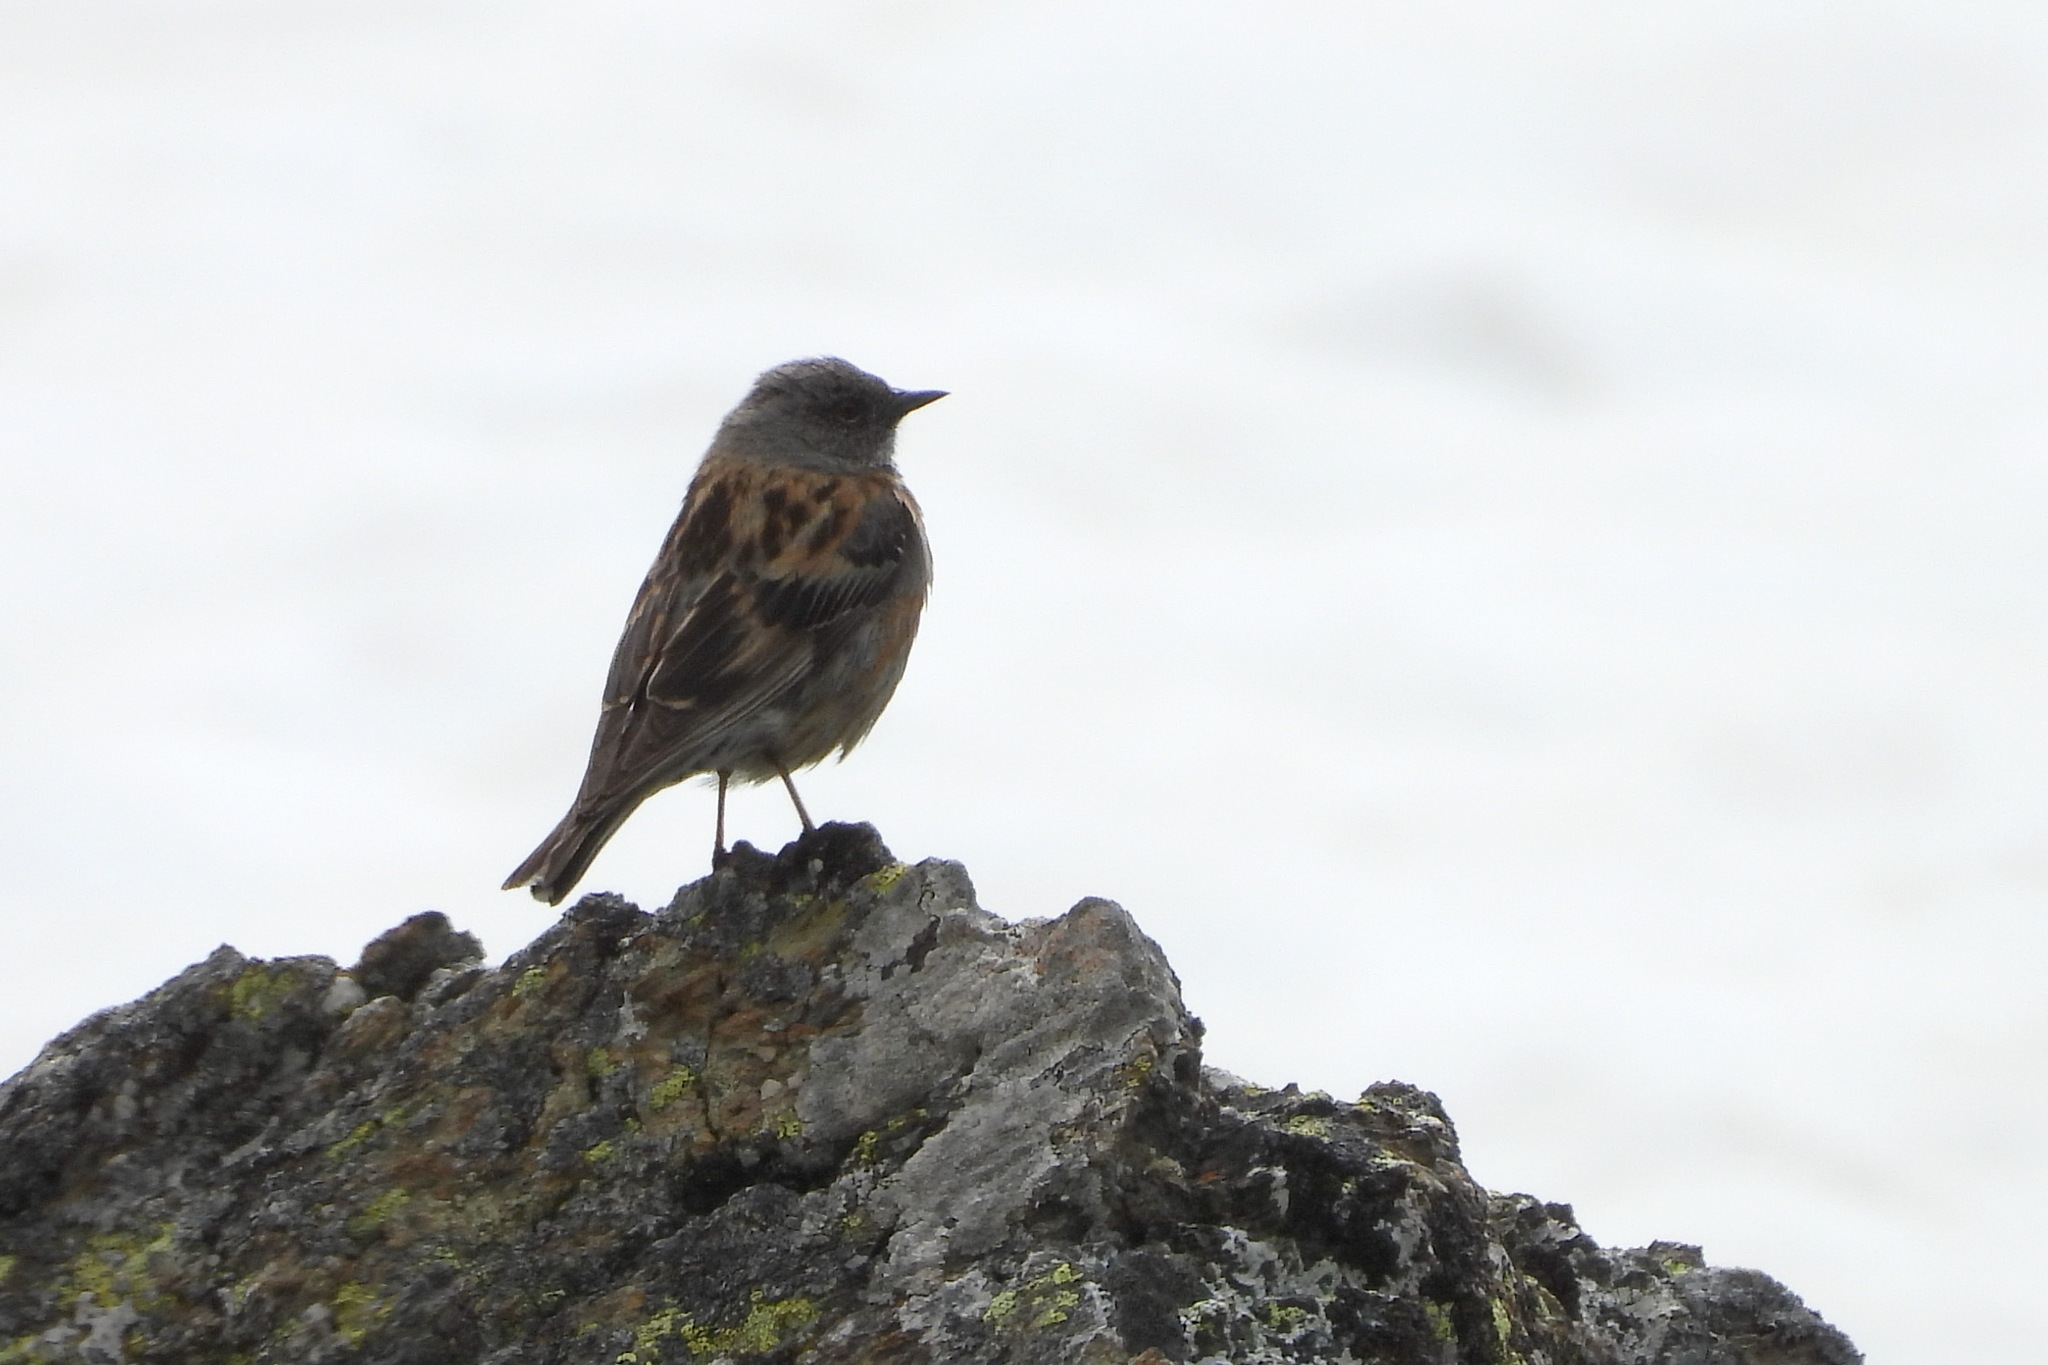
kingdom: Animalia
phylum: Chordata
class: Aves
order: Passeriformes
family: Prunellidae
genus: Prunella
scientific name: Prunella himalayana
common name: Altai accentor
